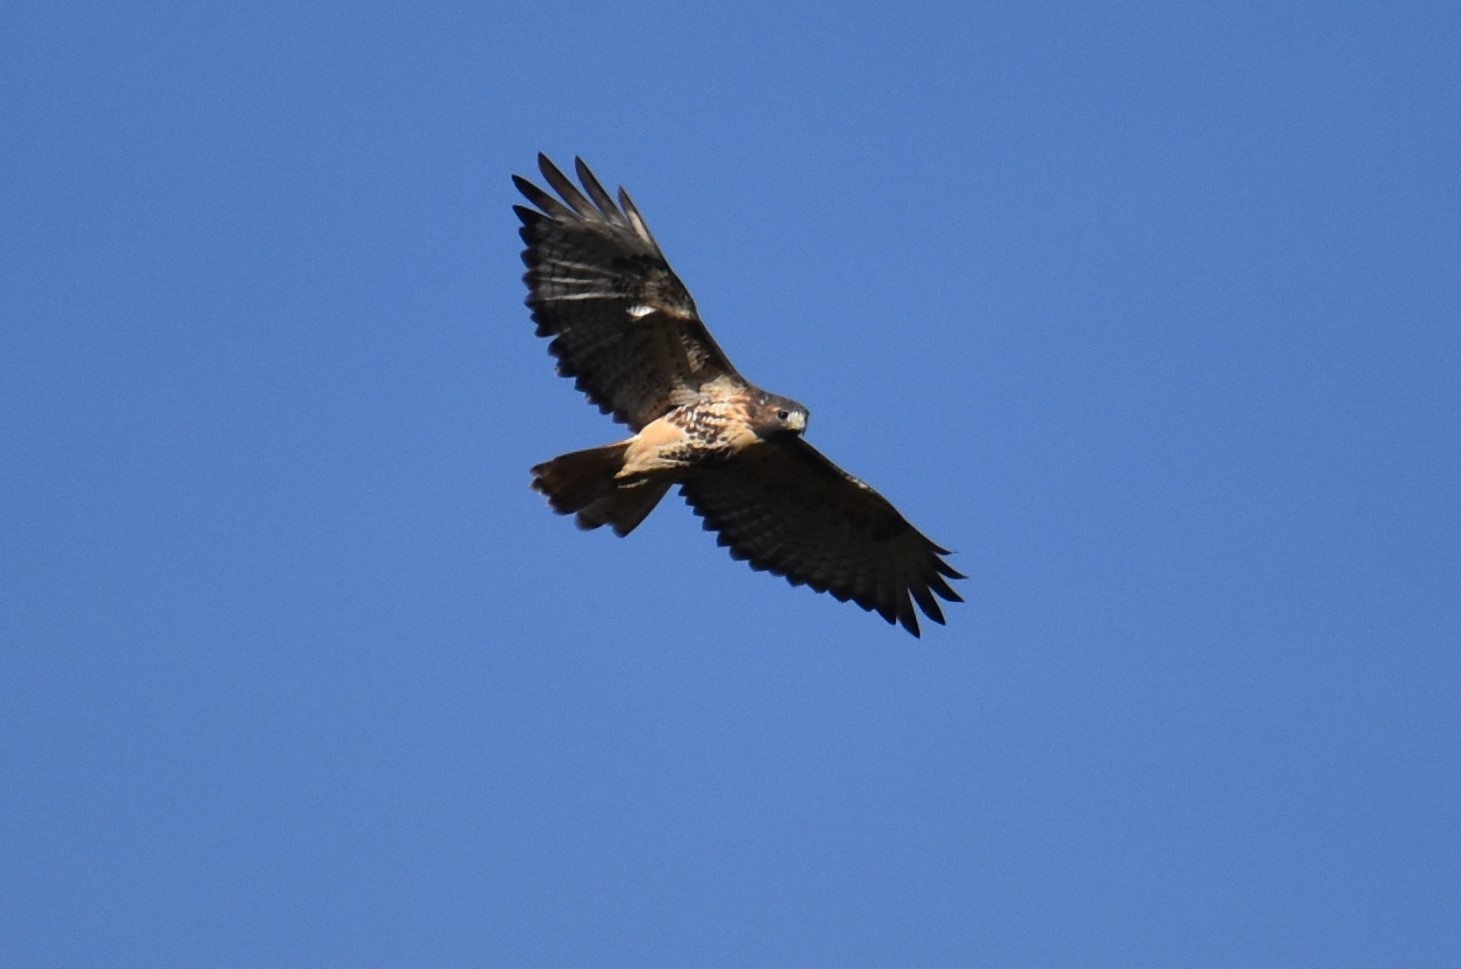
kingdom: Animalia
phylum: Chordata
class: Aves
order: Accipitriformes
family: Accipitridae
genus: Buteo
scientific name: Buteo jamaicensis
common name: Red-tailed hawk
